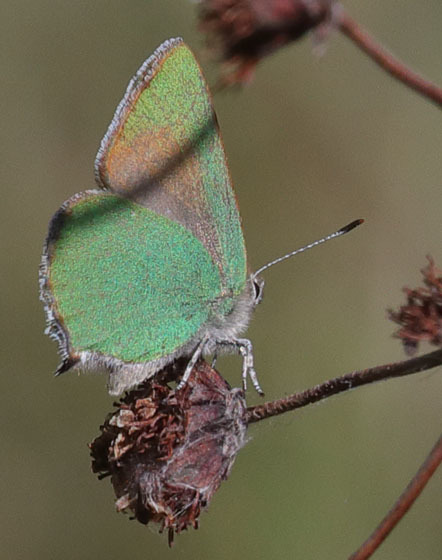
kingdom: Animalia
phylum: Arthropoda
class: Insecta
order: Lepidoptera
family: Lycaenidae
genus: Callophrys
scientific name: Callophrys dumetorum
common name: Bramble hairstreak
